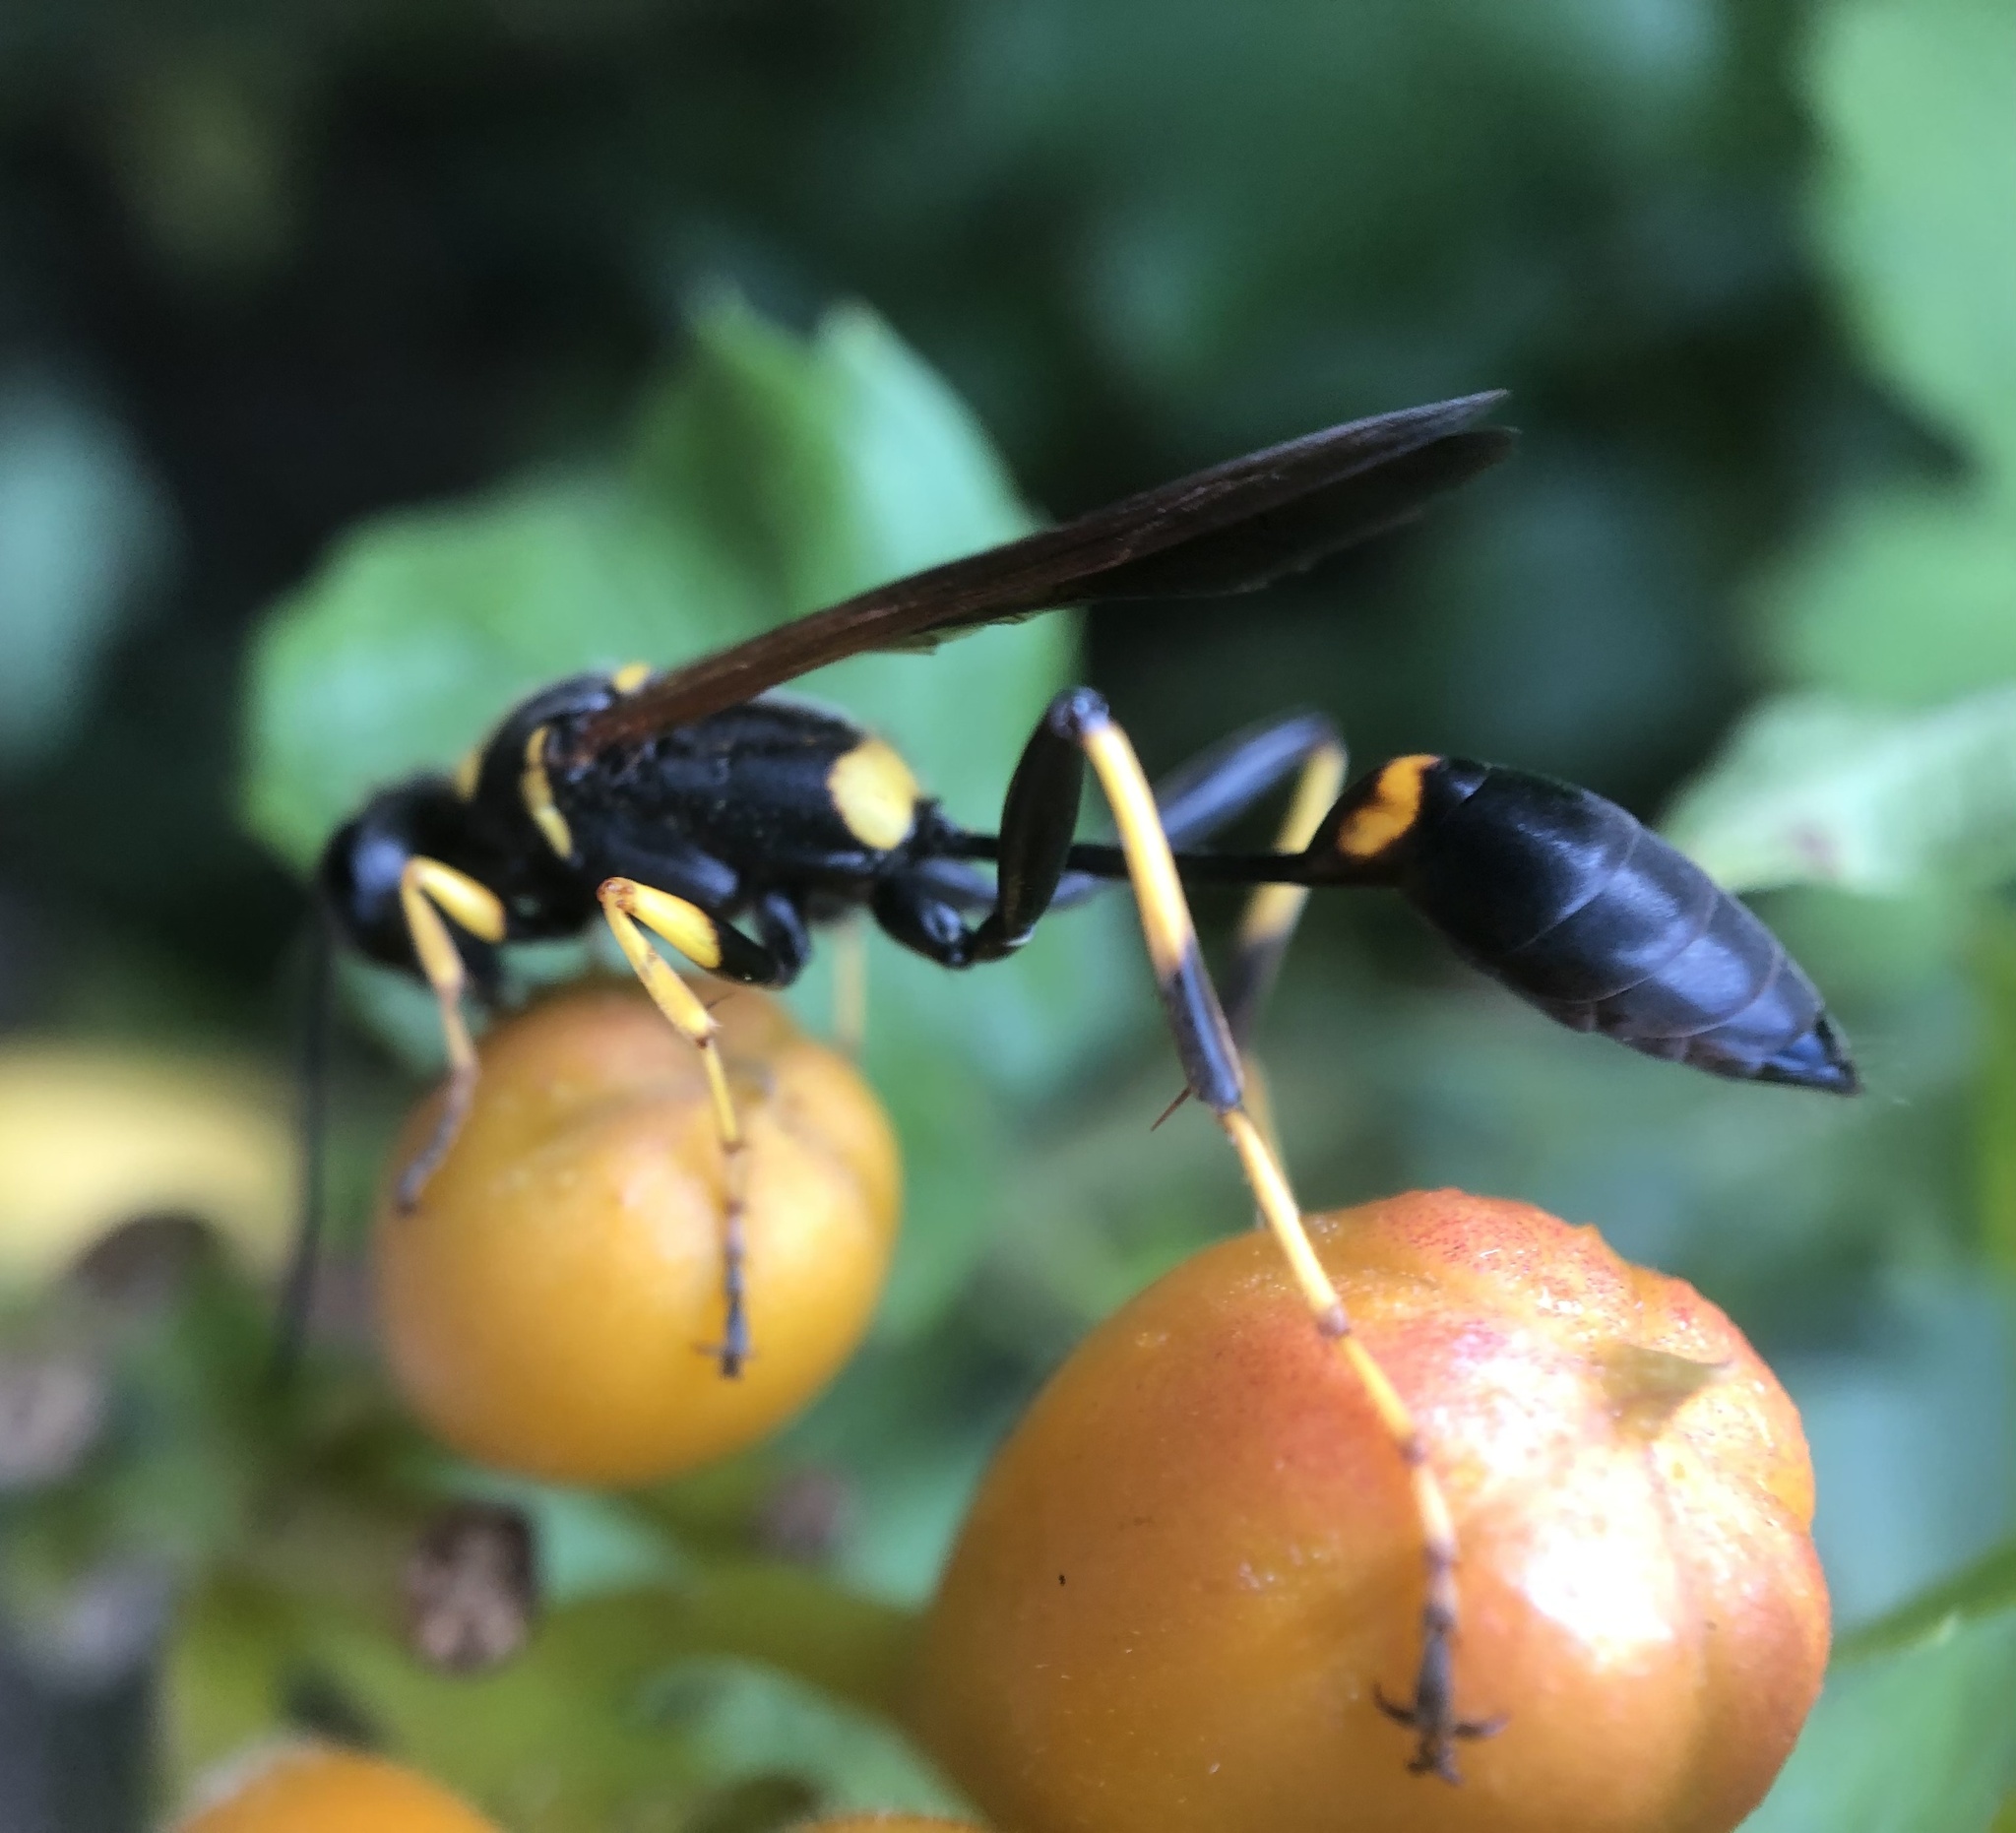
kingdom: Animalia
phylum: Arthropoda
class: Insecta
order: Hymenoptera
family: Sphecidae
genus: Sceliphron
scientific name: Sceliphron caementarium
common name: Mud dauber
